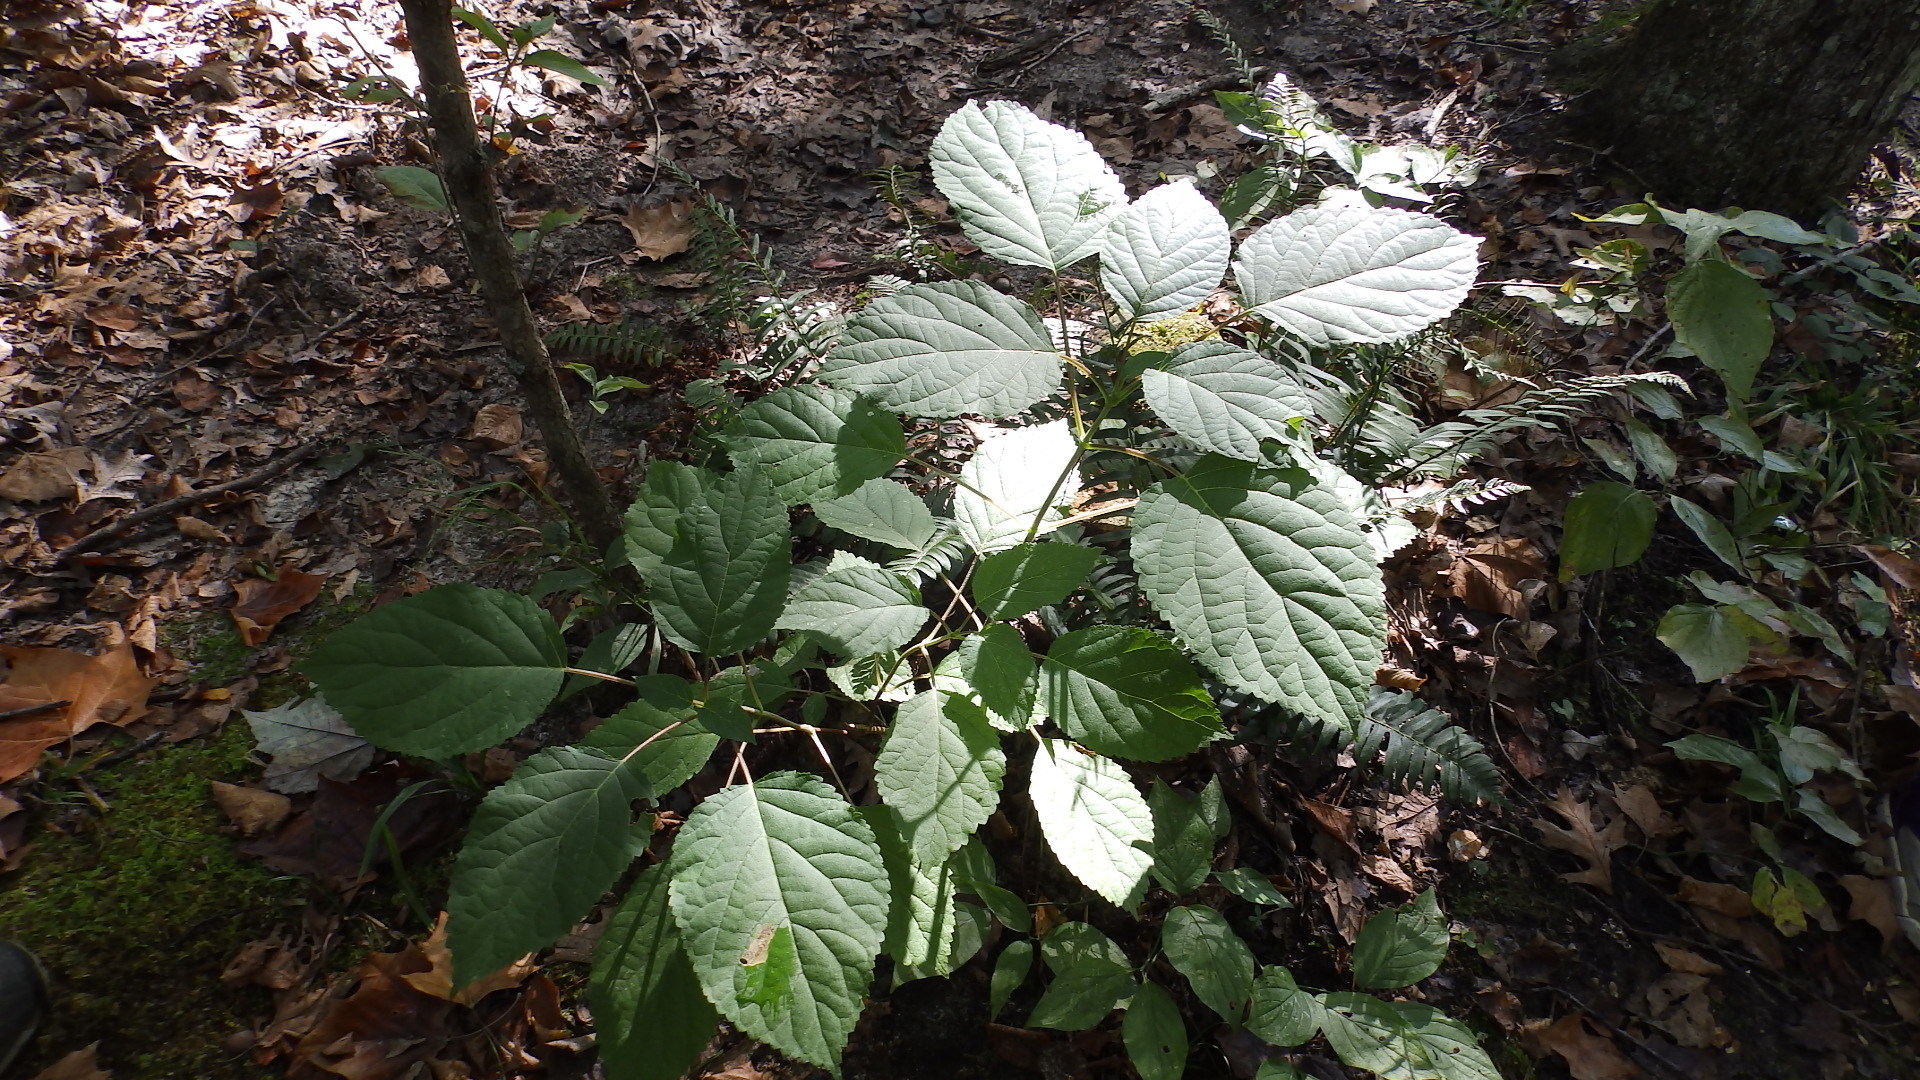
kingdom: Plantae
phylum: Tracheophyta
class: Magnoliopsida
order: Cornales
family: Hydrangeaceae
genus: Hydrangea
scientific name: Hydrangea arborescens
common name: Sevenbark
